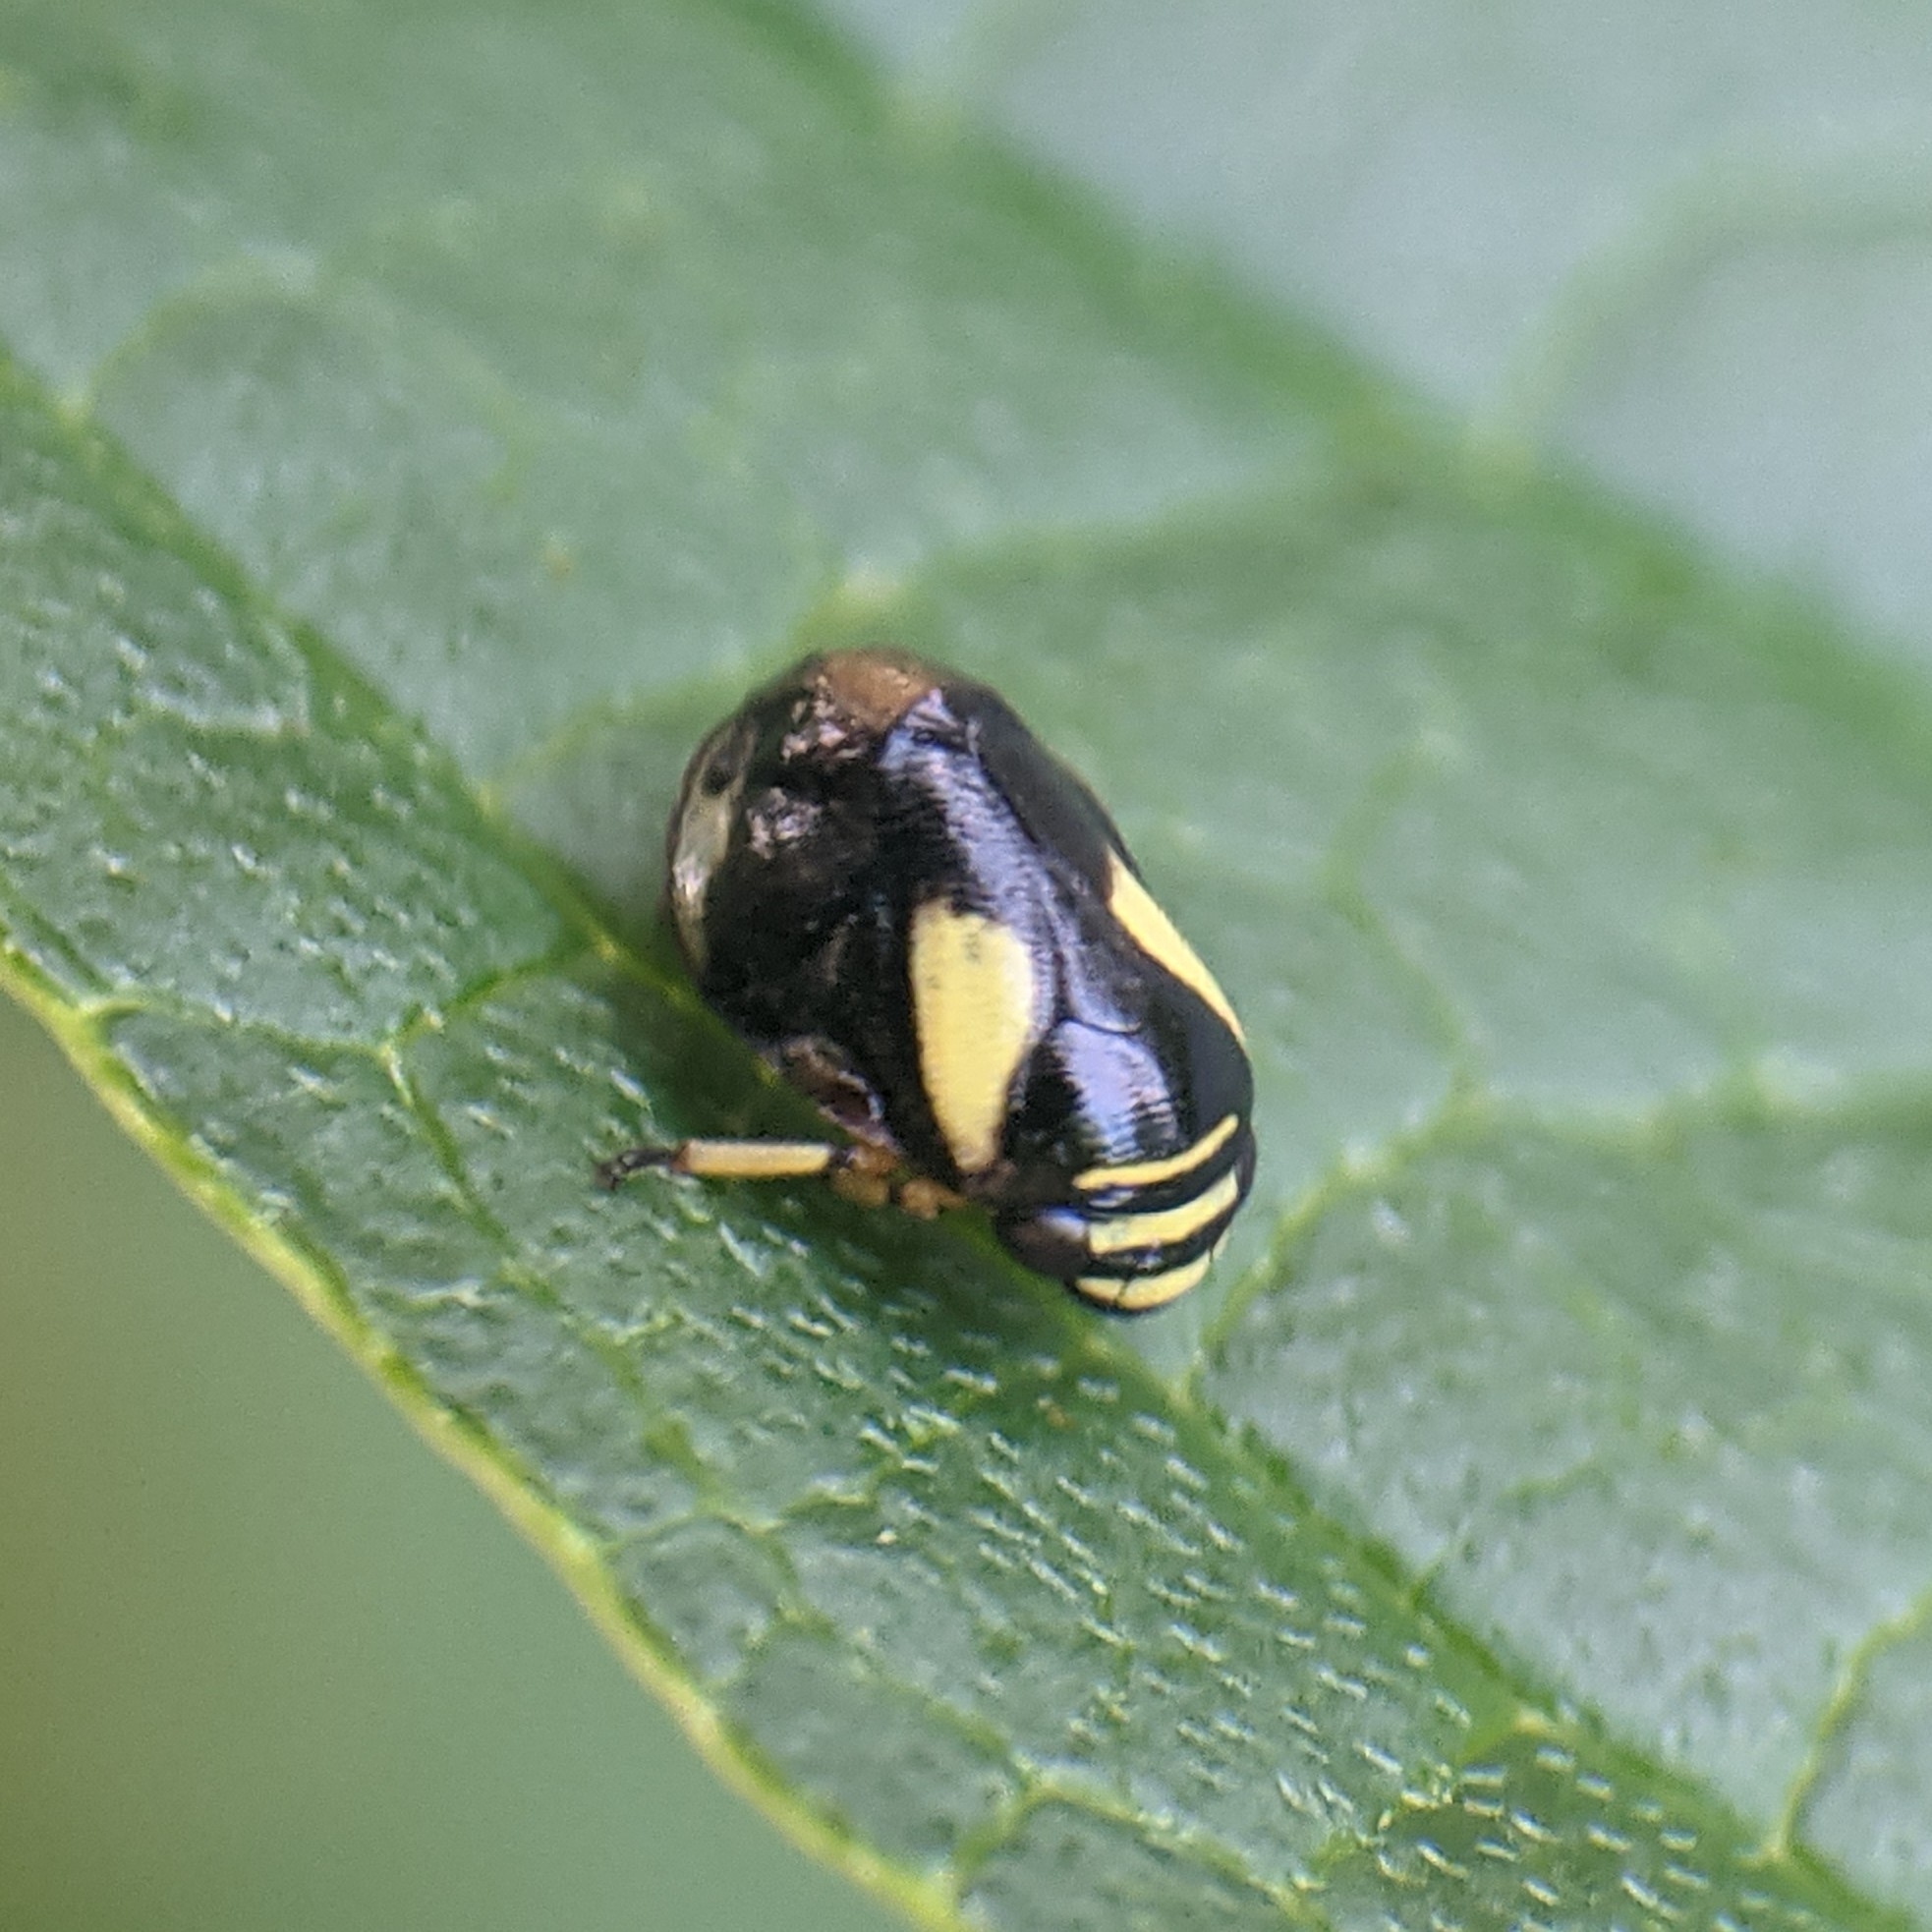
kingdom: Animalia
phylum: Arthropoda
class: Insecta
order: Hemiptera
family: Clastopteridae
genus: Clastoptera
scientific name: Clastoptera proteus
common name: Dogwood spittlebug
